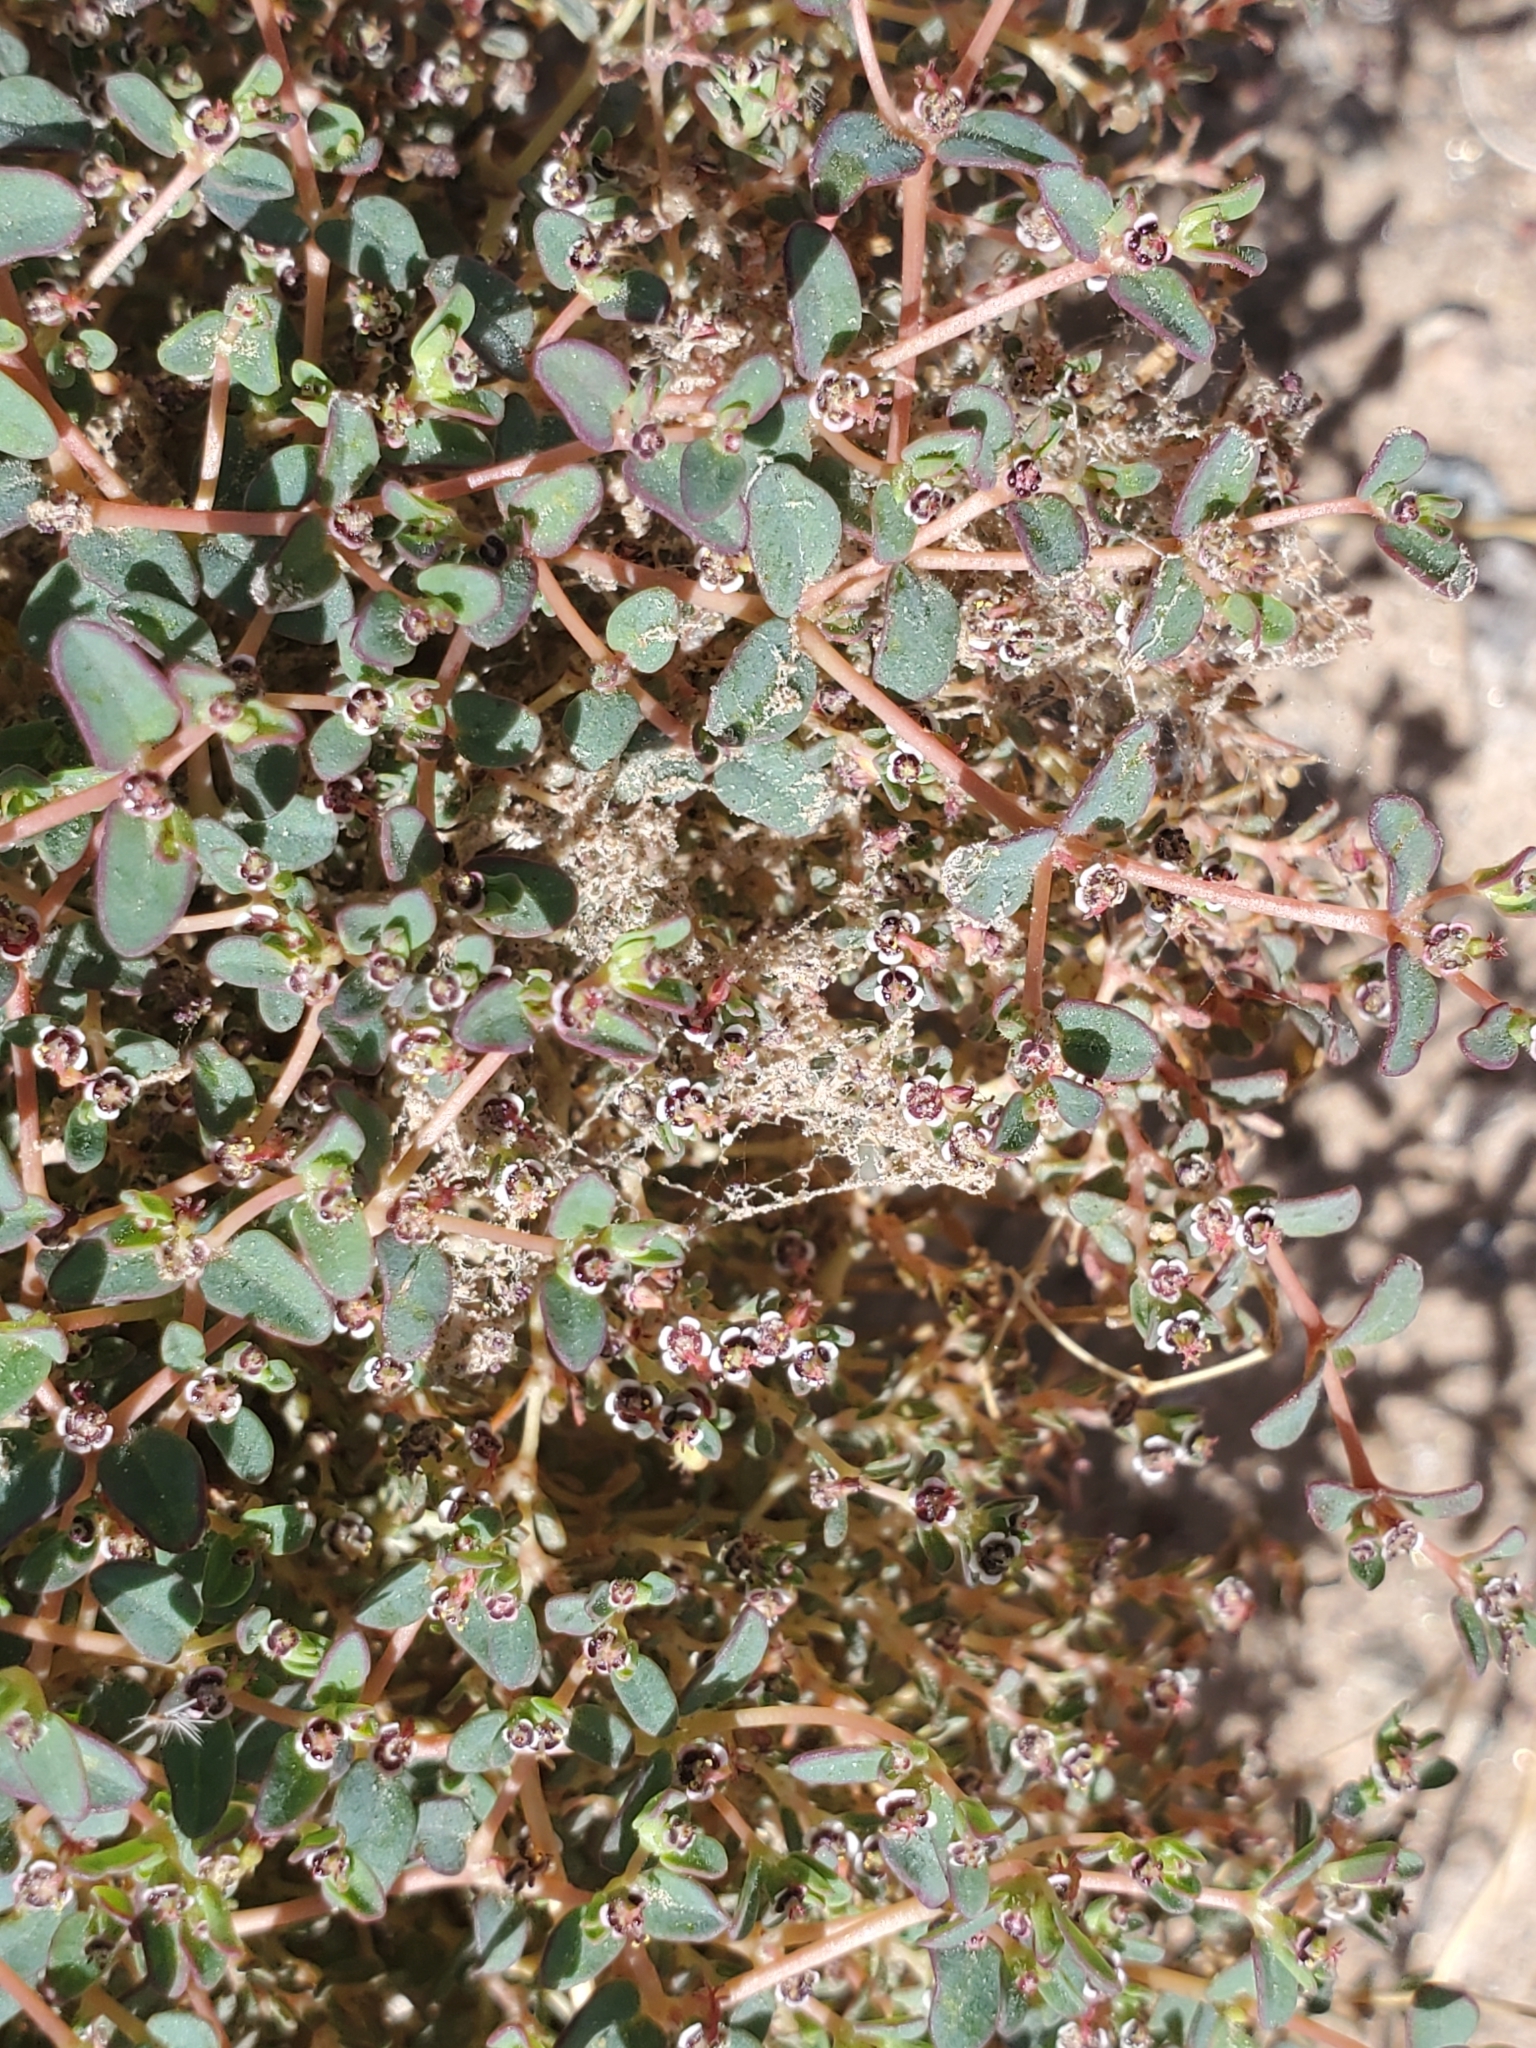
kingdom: Plantae
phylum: Tracheophyta
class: Magnoliopsida
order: Malpighiales
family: Euphorbiaceae
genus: Euphorbia
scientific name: Euphorbia polycarpa
